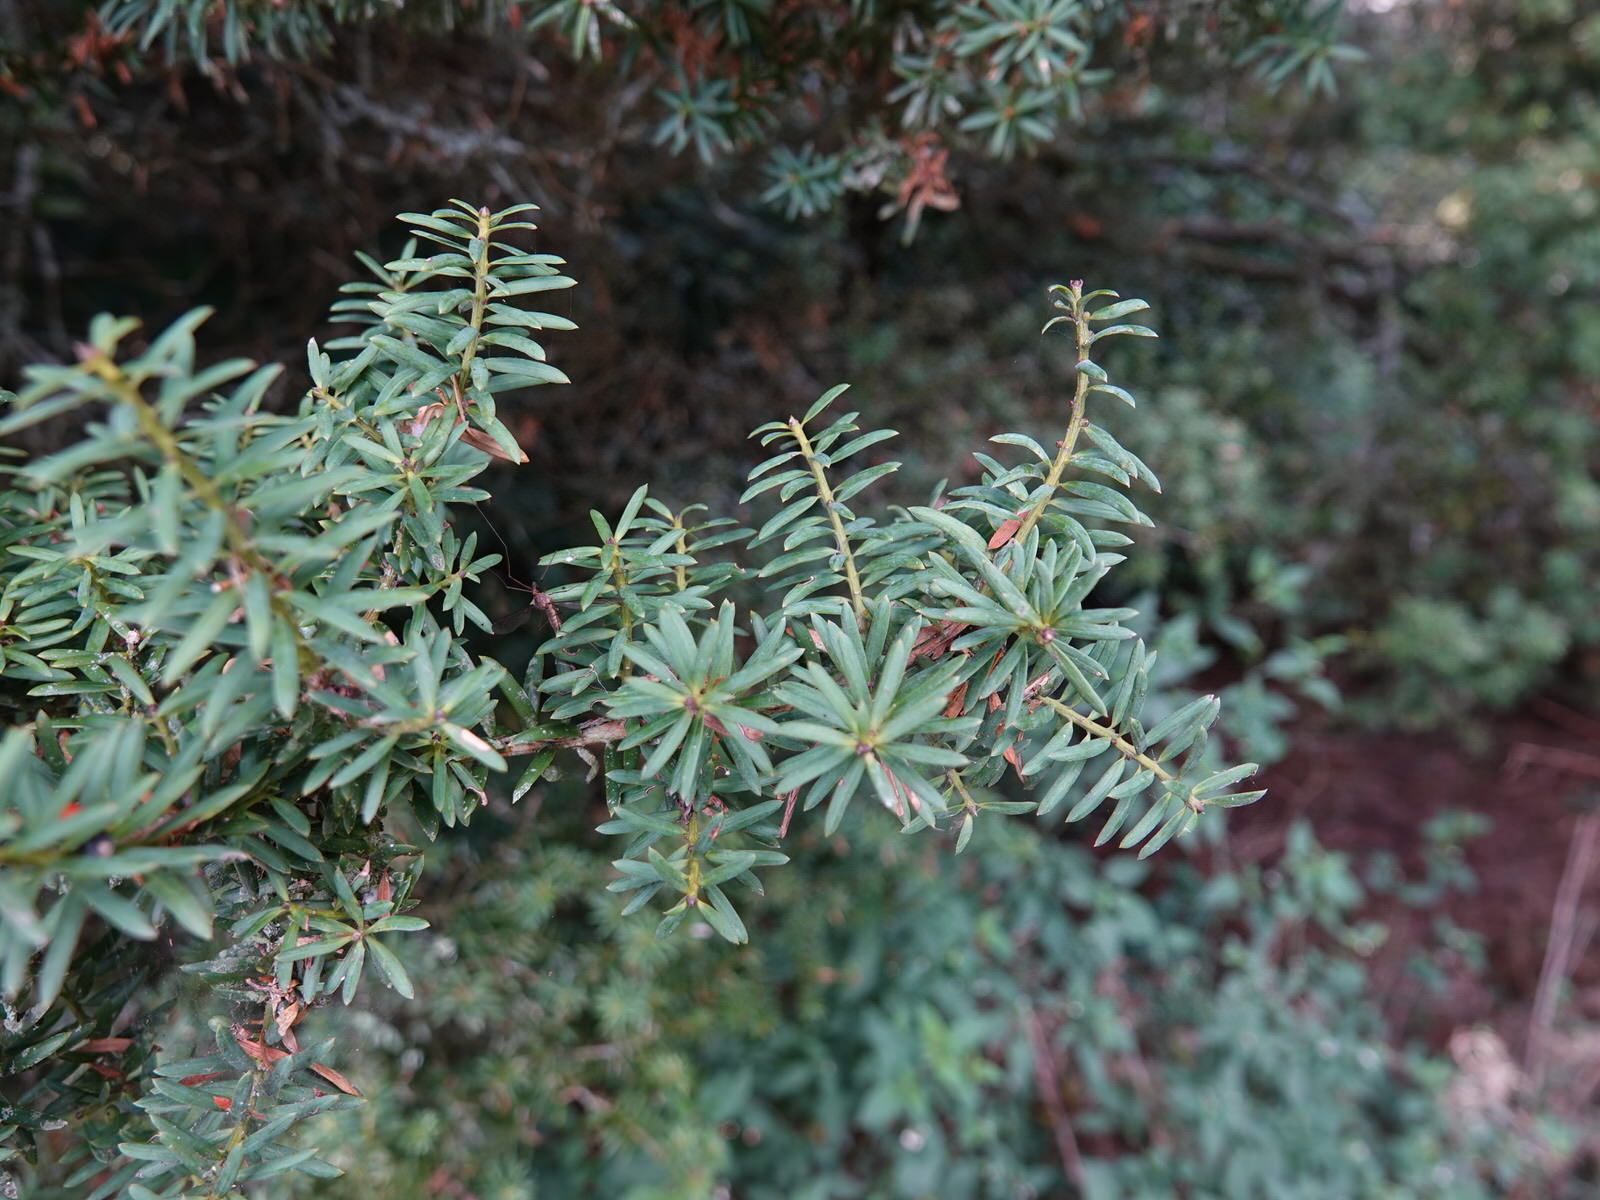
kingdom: Plantae
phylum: Tracheophyta
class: Pinopsida
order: Pinales
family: Podocarpaceae
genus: Podocarpus
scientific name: Podocarpus totara
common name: Totara
